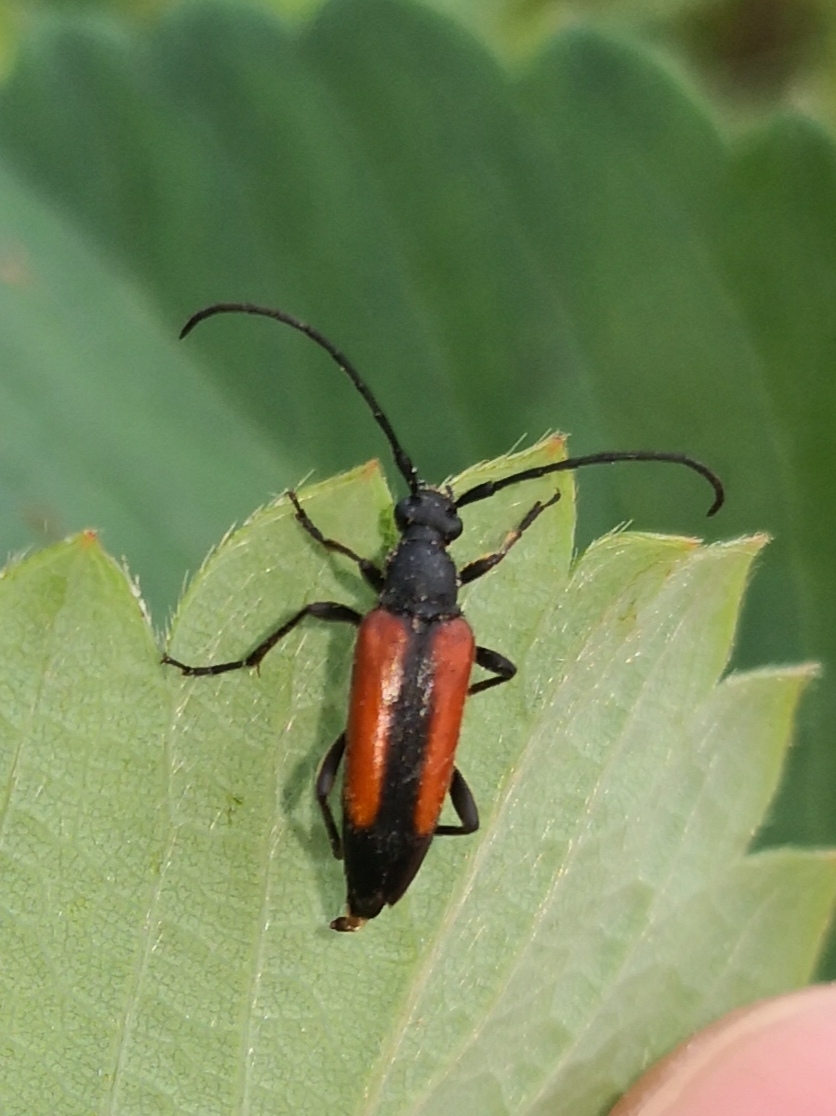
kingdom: Animalia
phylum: Arthropoda
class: Insecta
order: Coleoptera
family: Cerambycidae
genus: Stenurella
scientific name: Stenurella melanura
